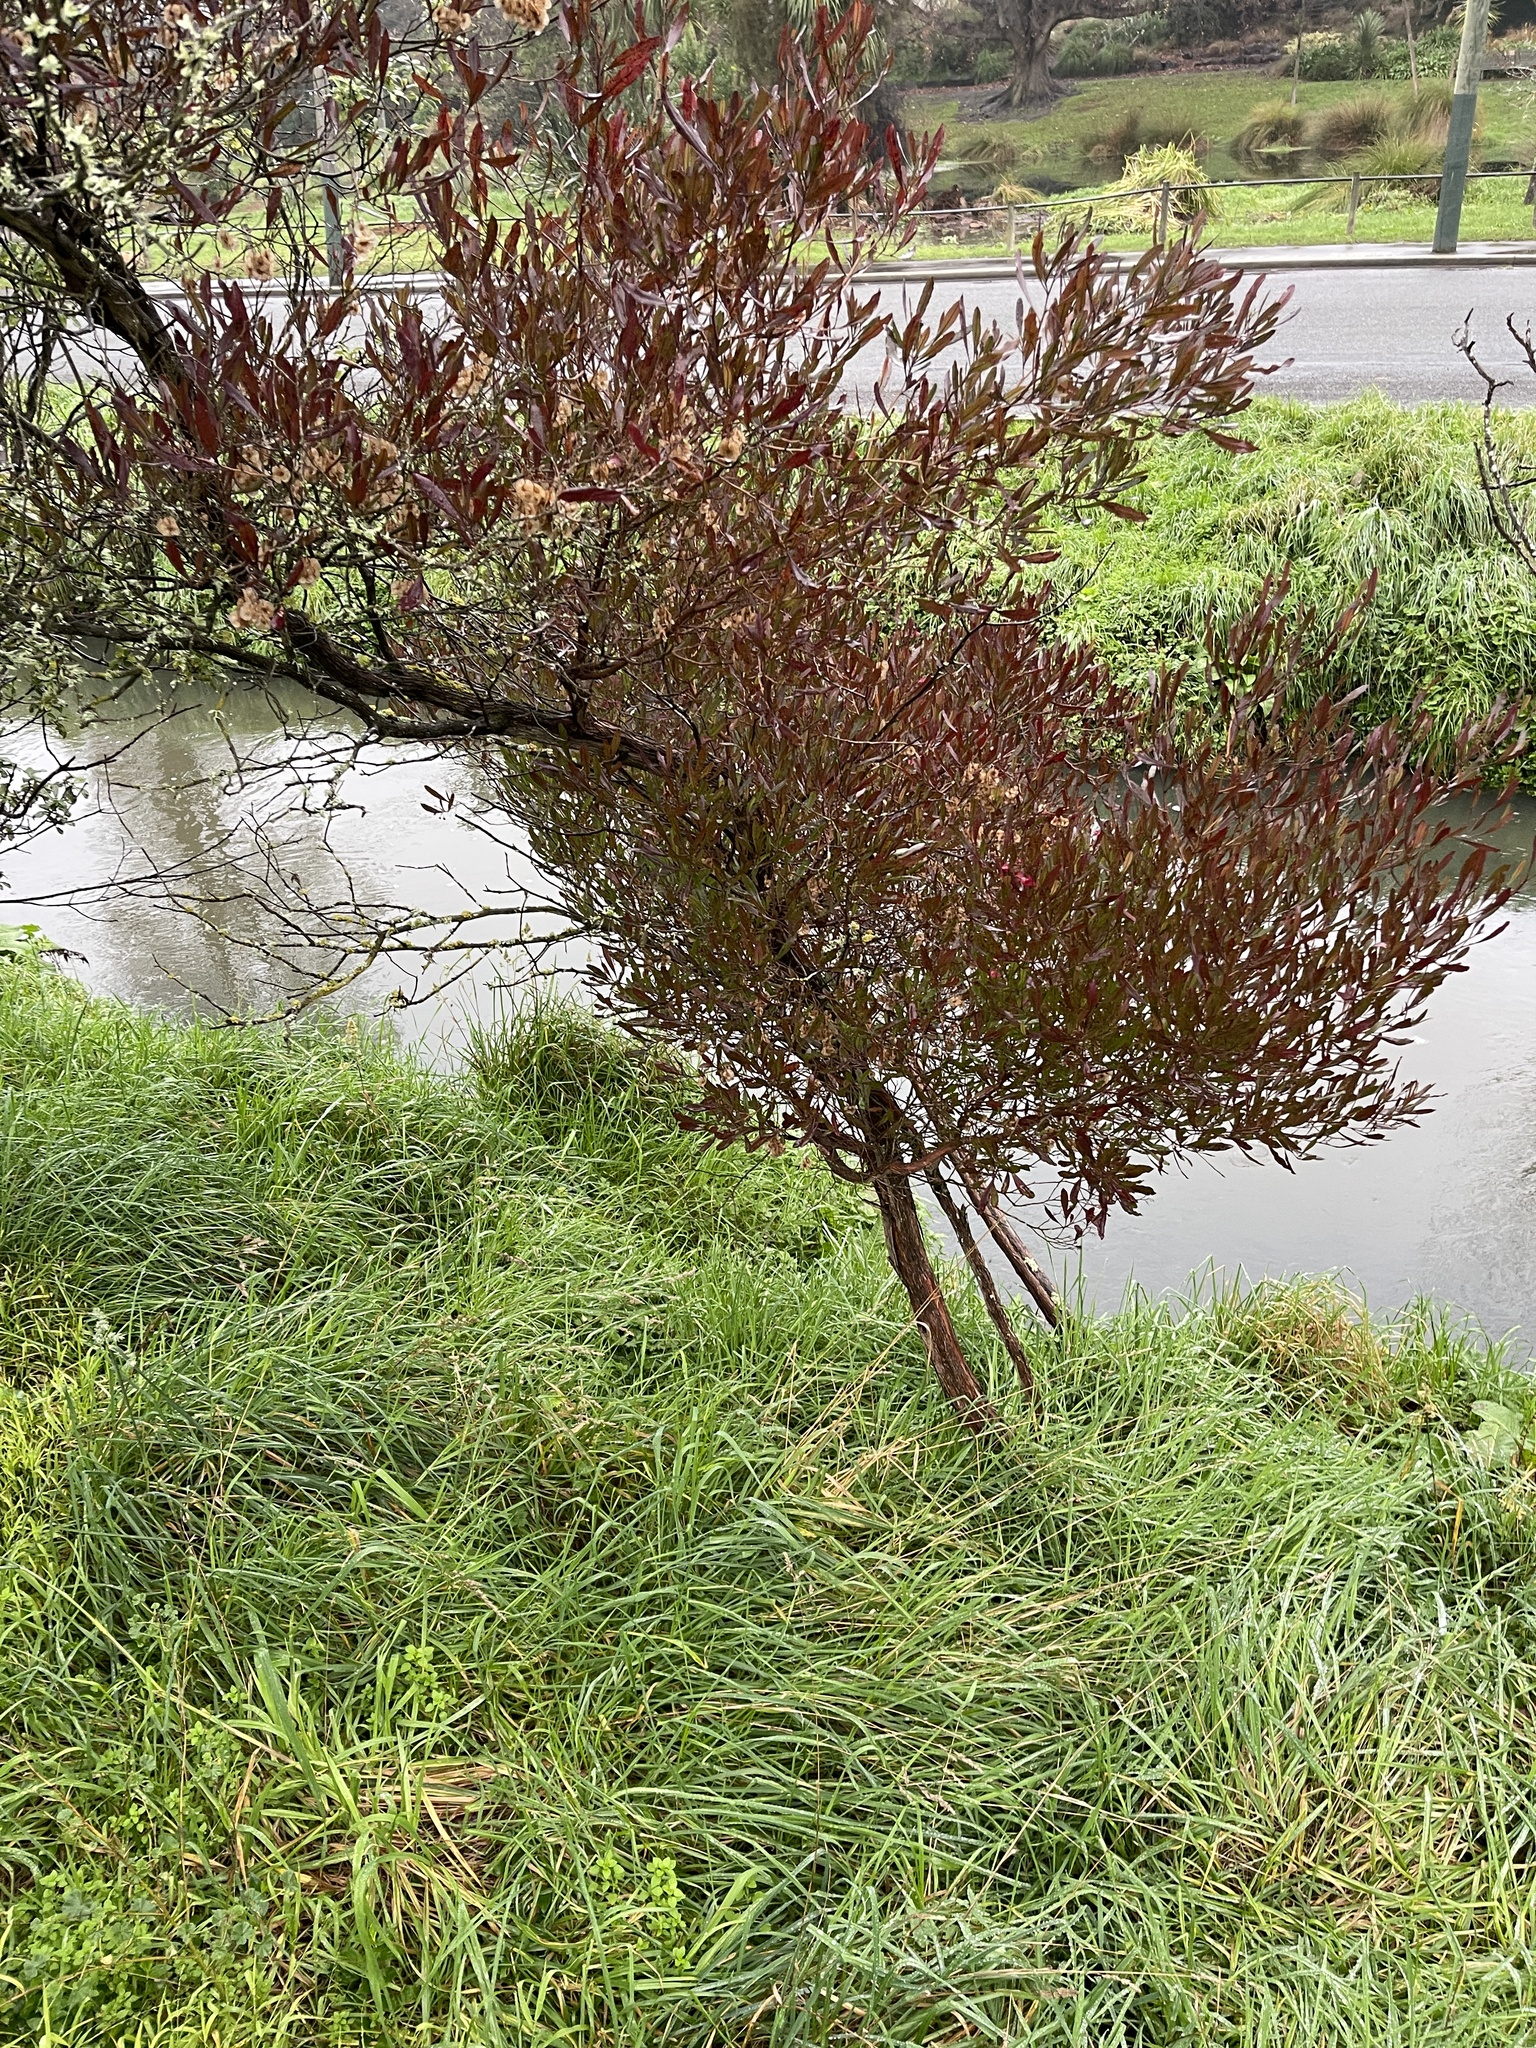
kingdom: Plantae
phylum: Tracheophyta
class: Magnoliopsida
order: Sapindales
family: Sapindaceae
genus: Dodonaea
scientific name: Dodonaea viscosa
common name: Hopbush
